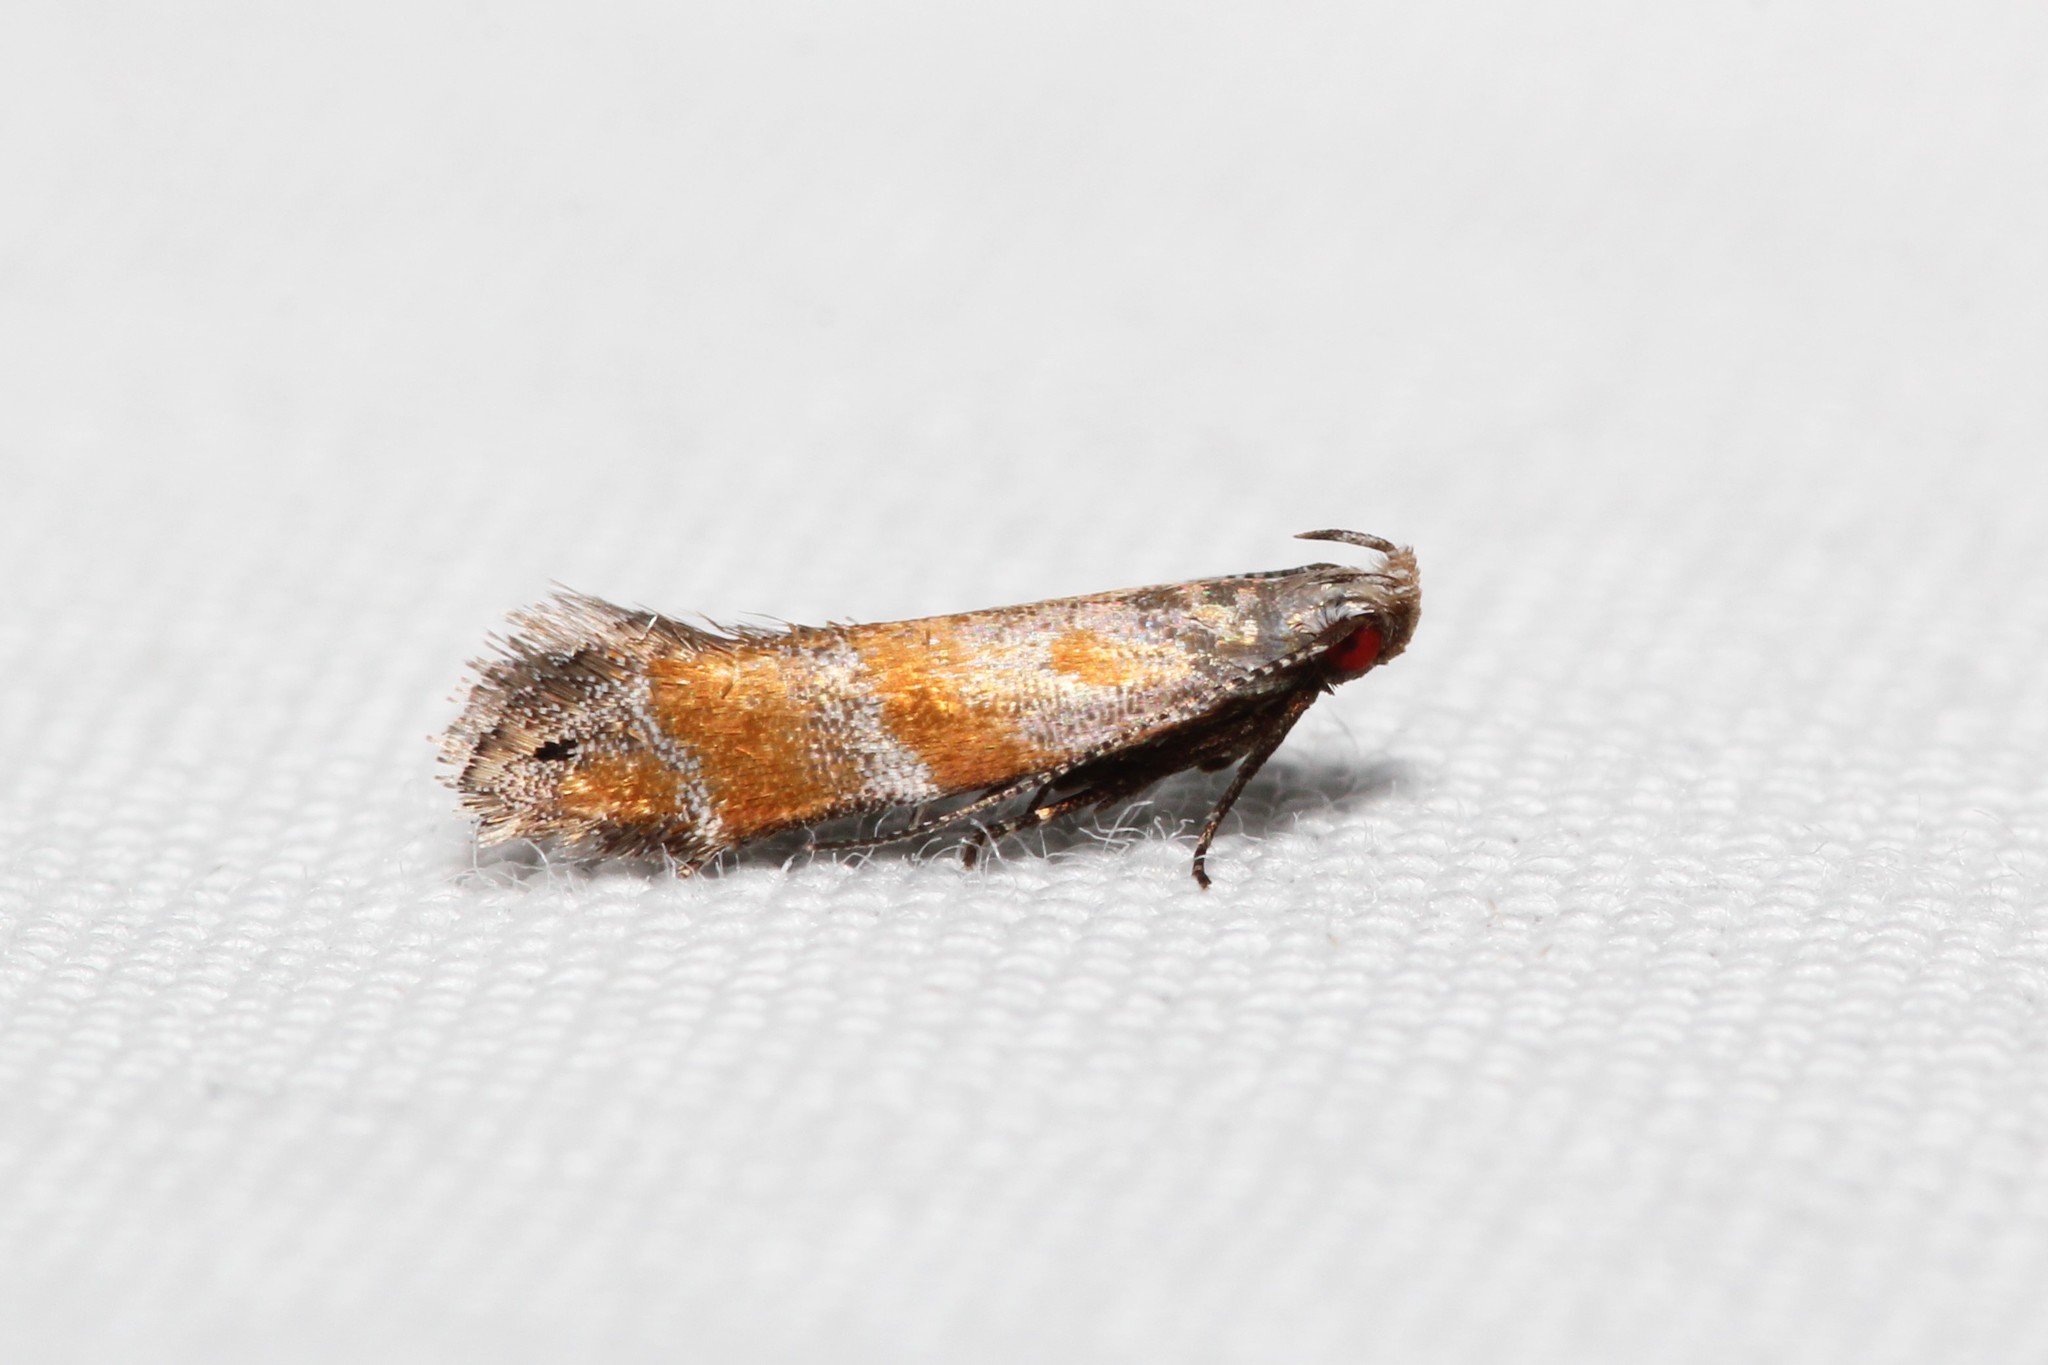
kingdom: Animalia
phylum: Arthropoda
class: Insecta
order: Lepidoptera
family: Gelechiidae
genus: Battaristis
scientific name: Battaristis vittella
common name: Orange stripe-backed moth
